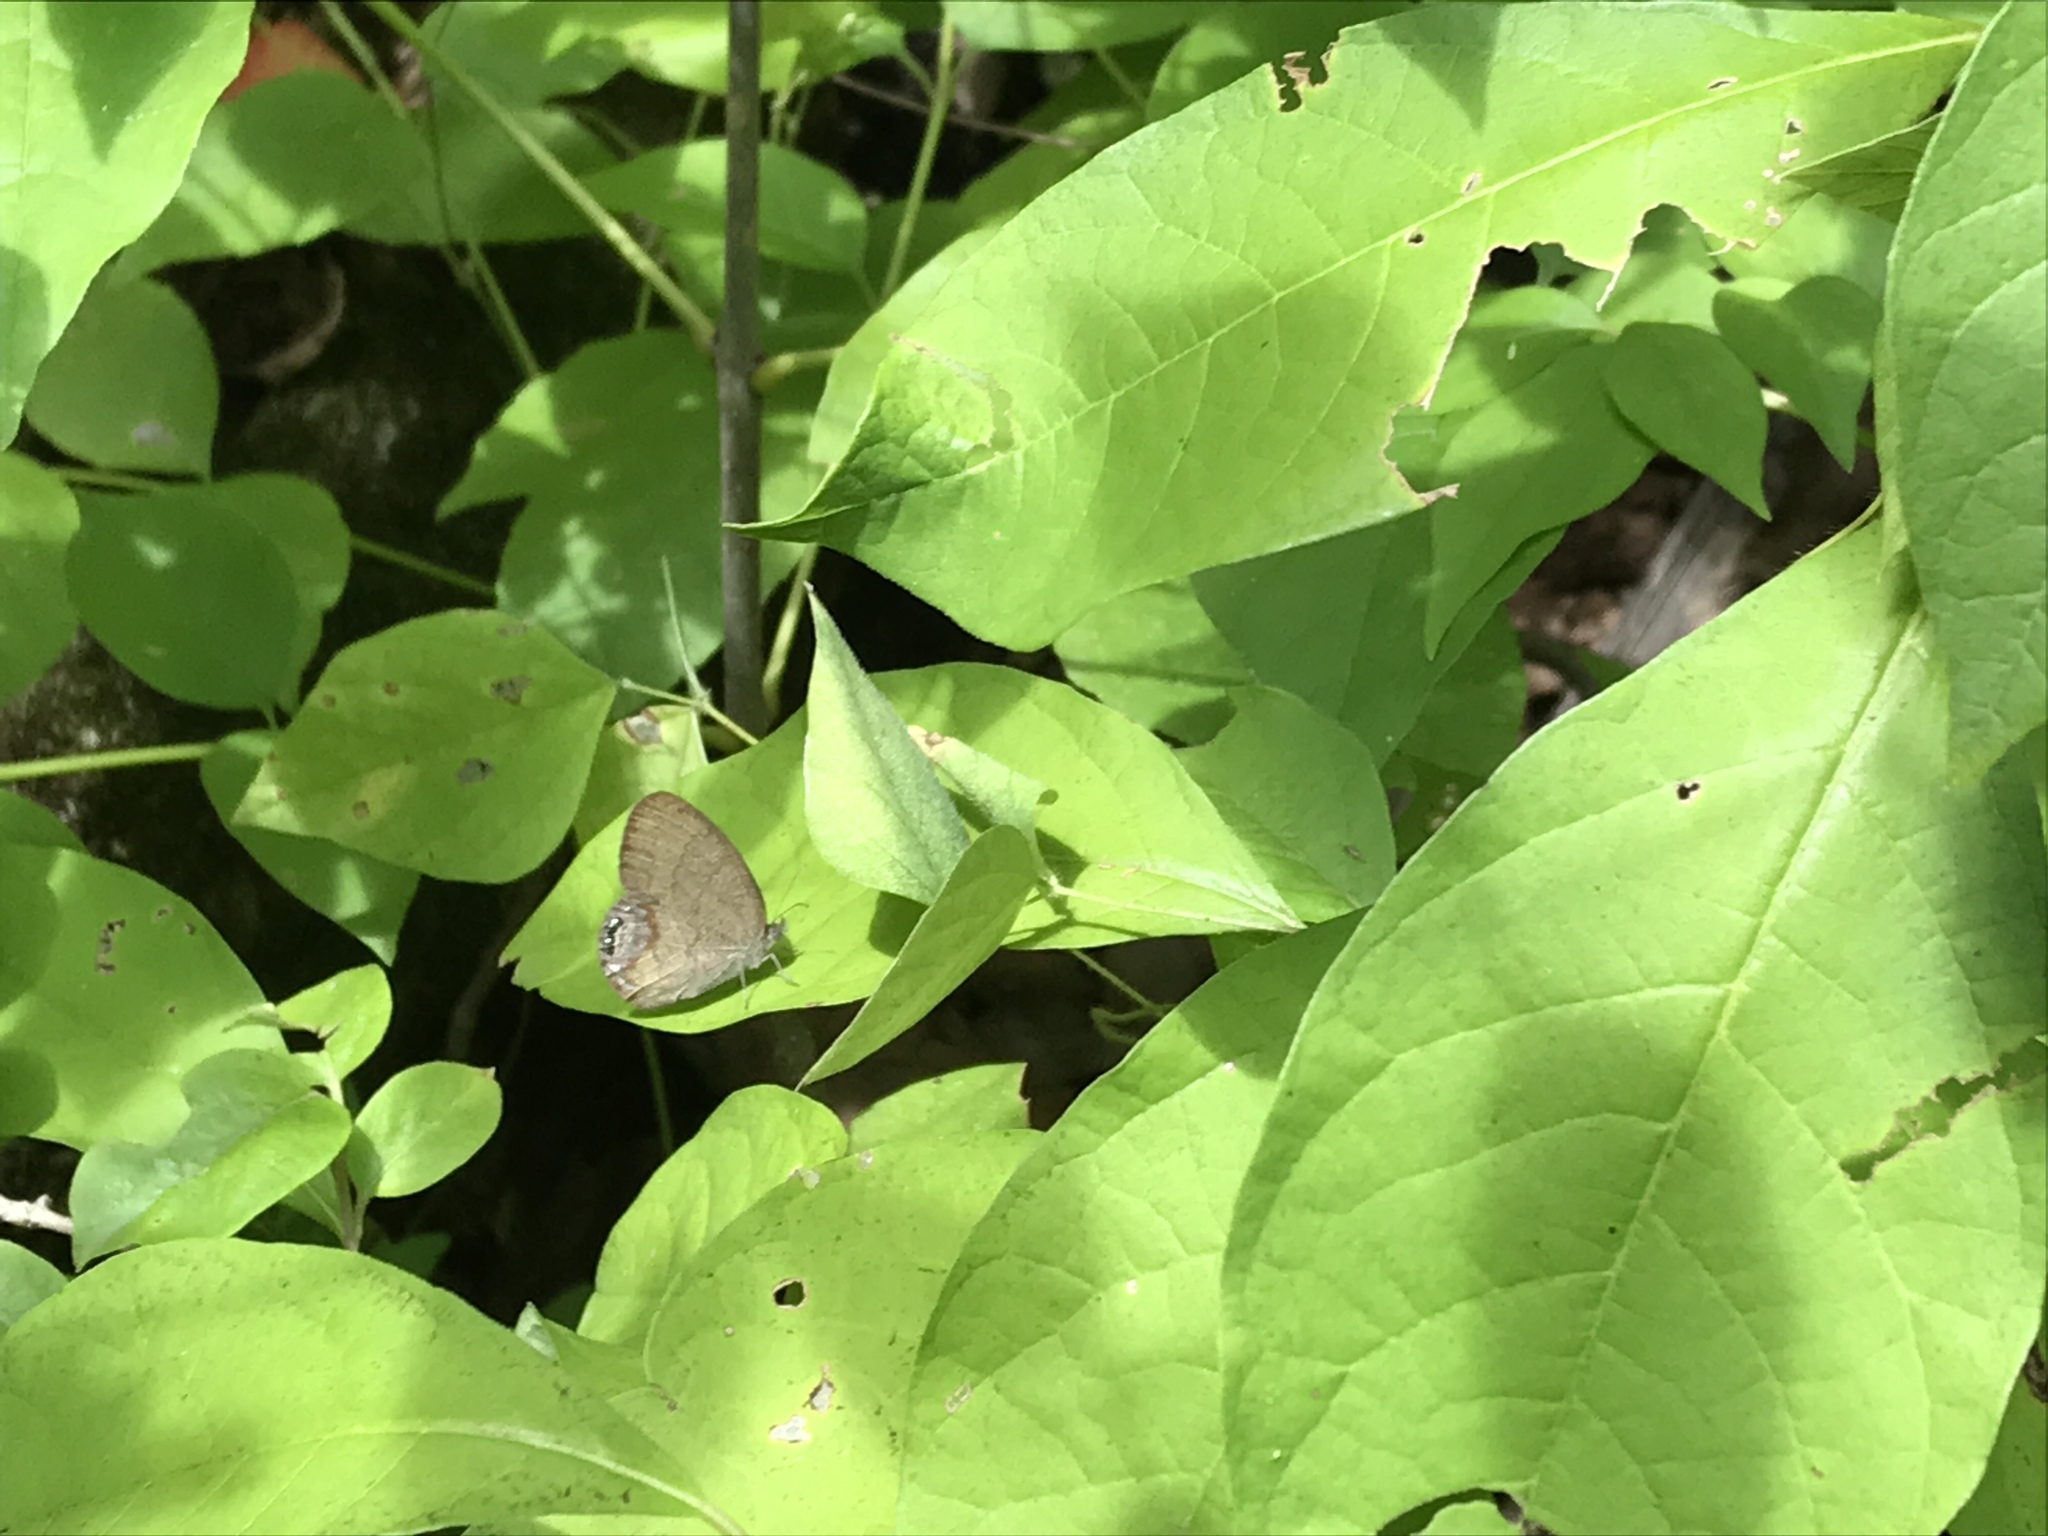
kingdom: Animalia
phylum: Arthropoda
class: Insecta
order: Lepidoptera
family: Nymphalidae
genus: Euptychia
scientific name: Euptychia cornelius
